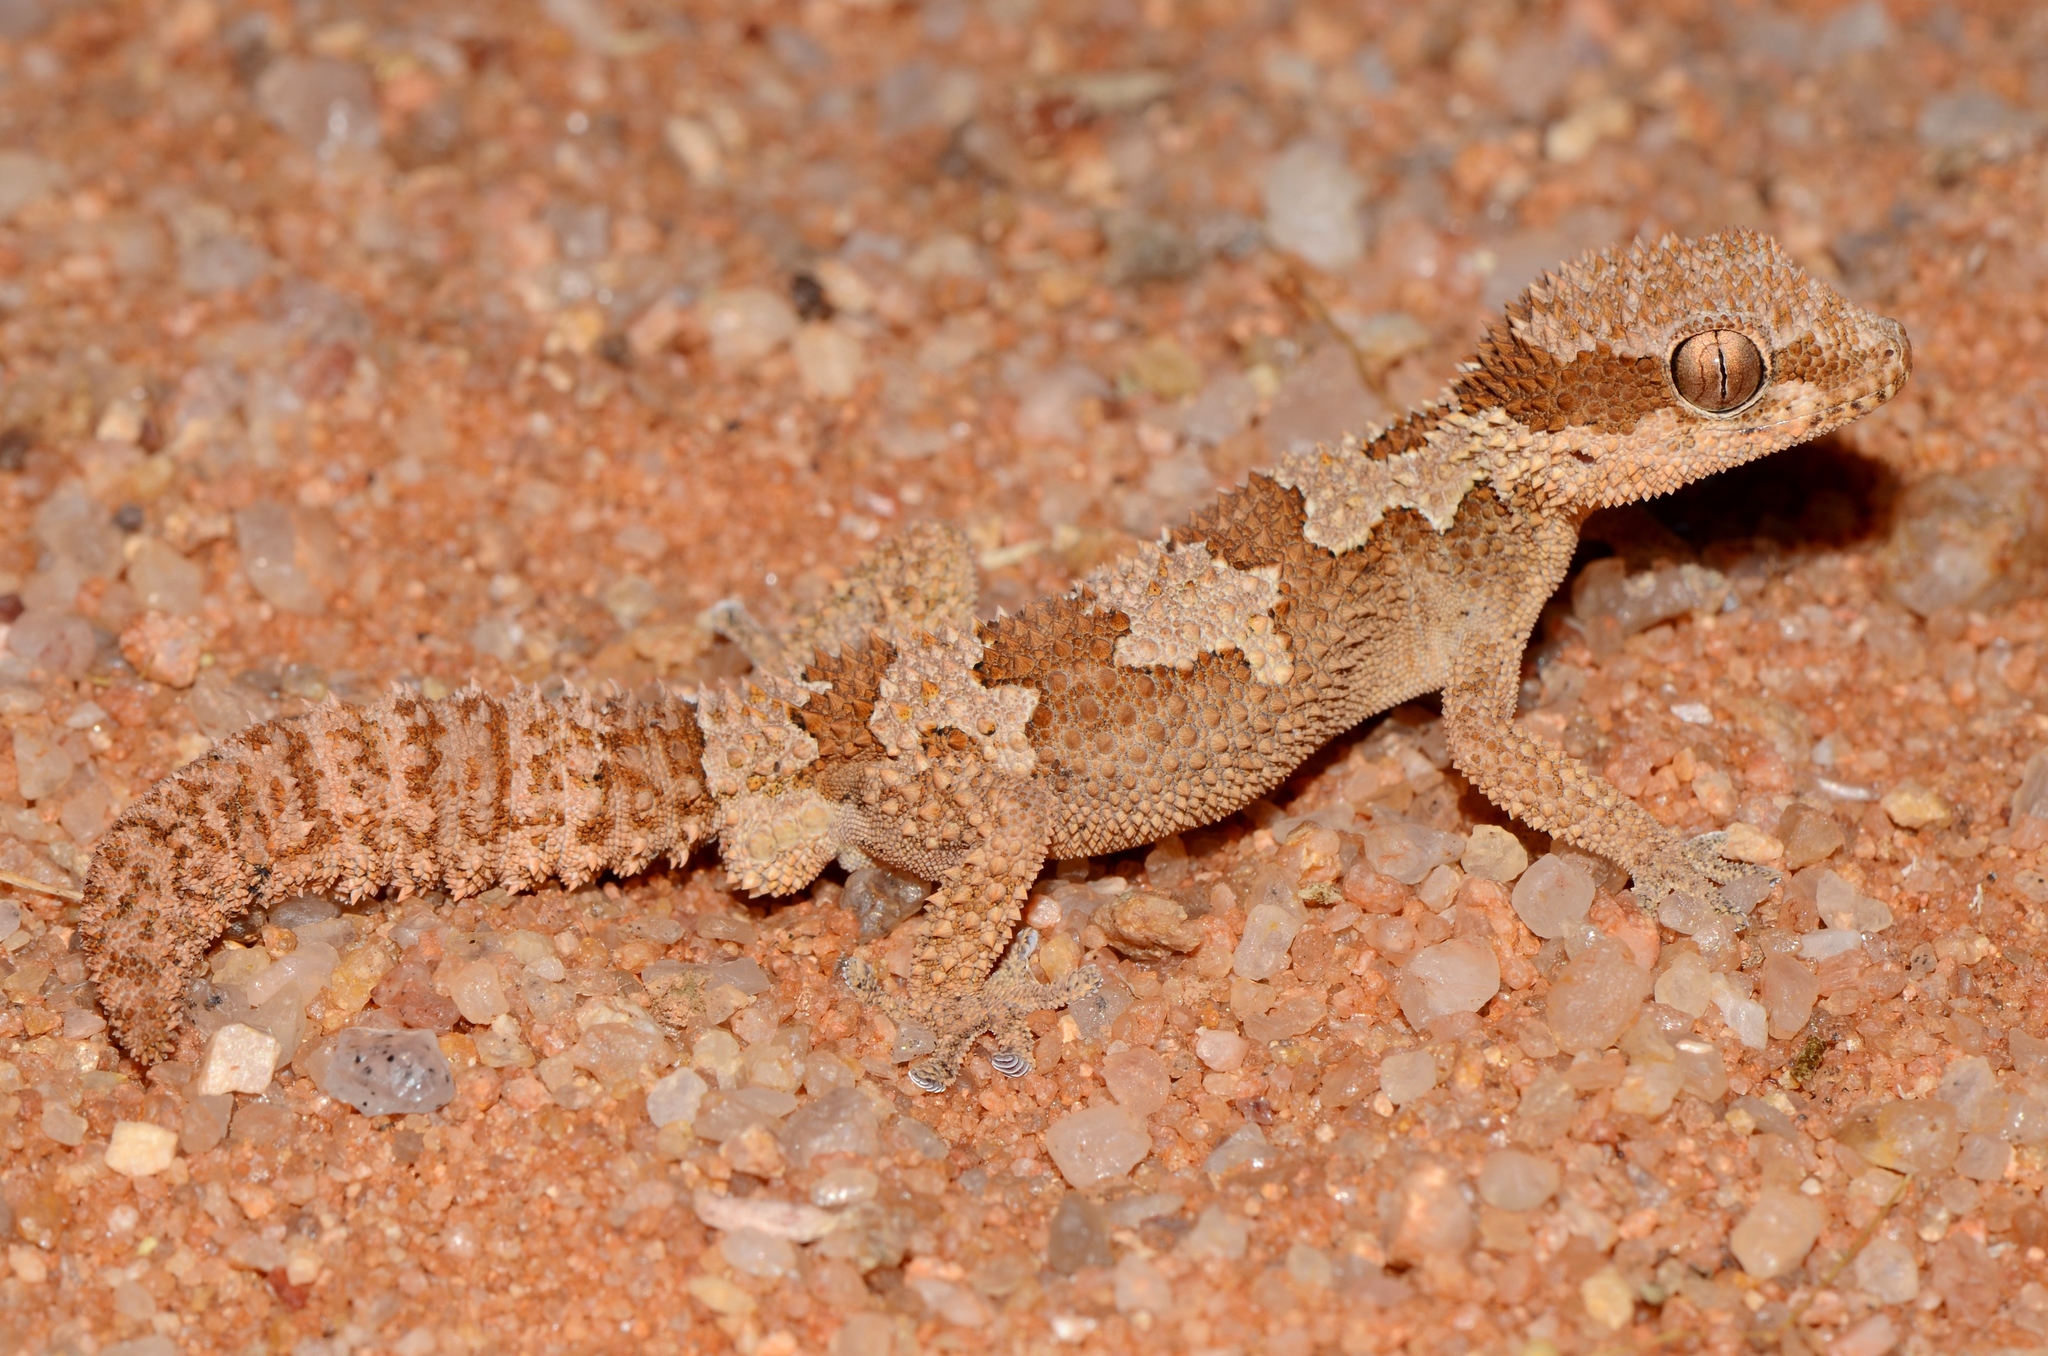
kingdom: Animalia
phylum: Chordata
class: Squamata
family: Gekkonidae
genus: Pachydactylus
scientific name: Pachydactylus rugosus
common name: Common rough gecko
